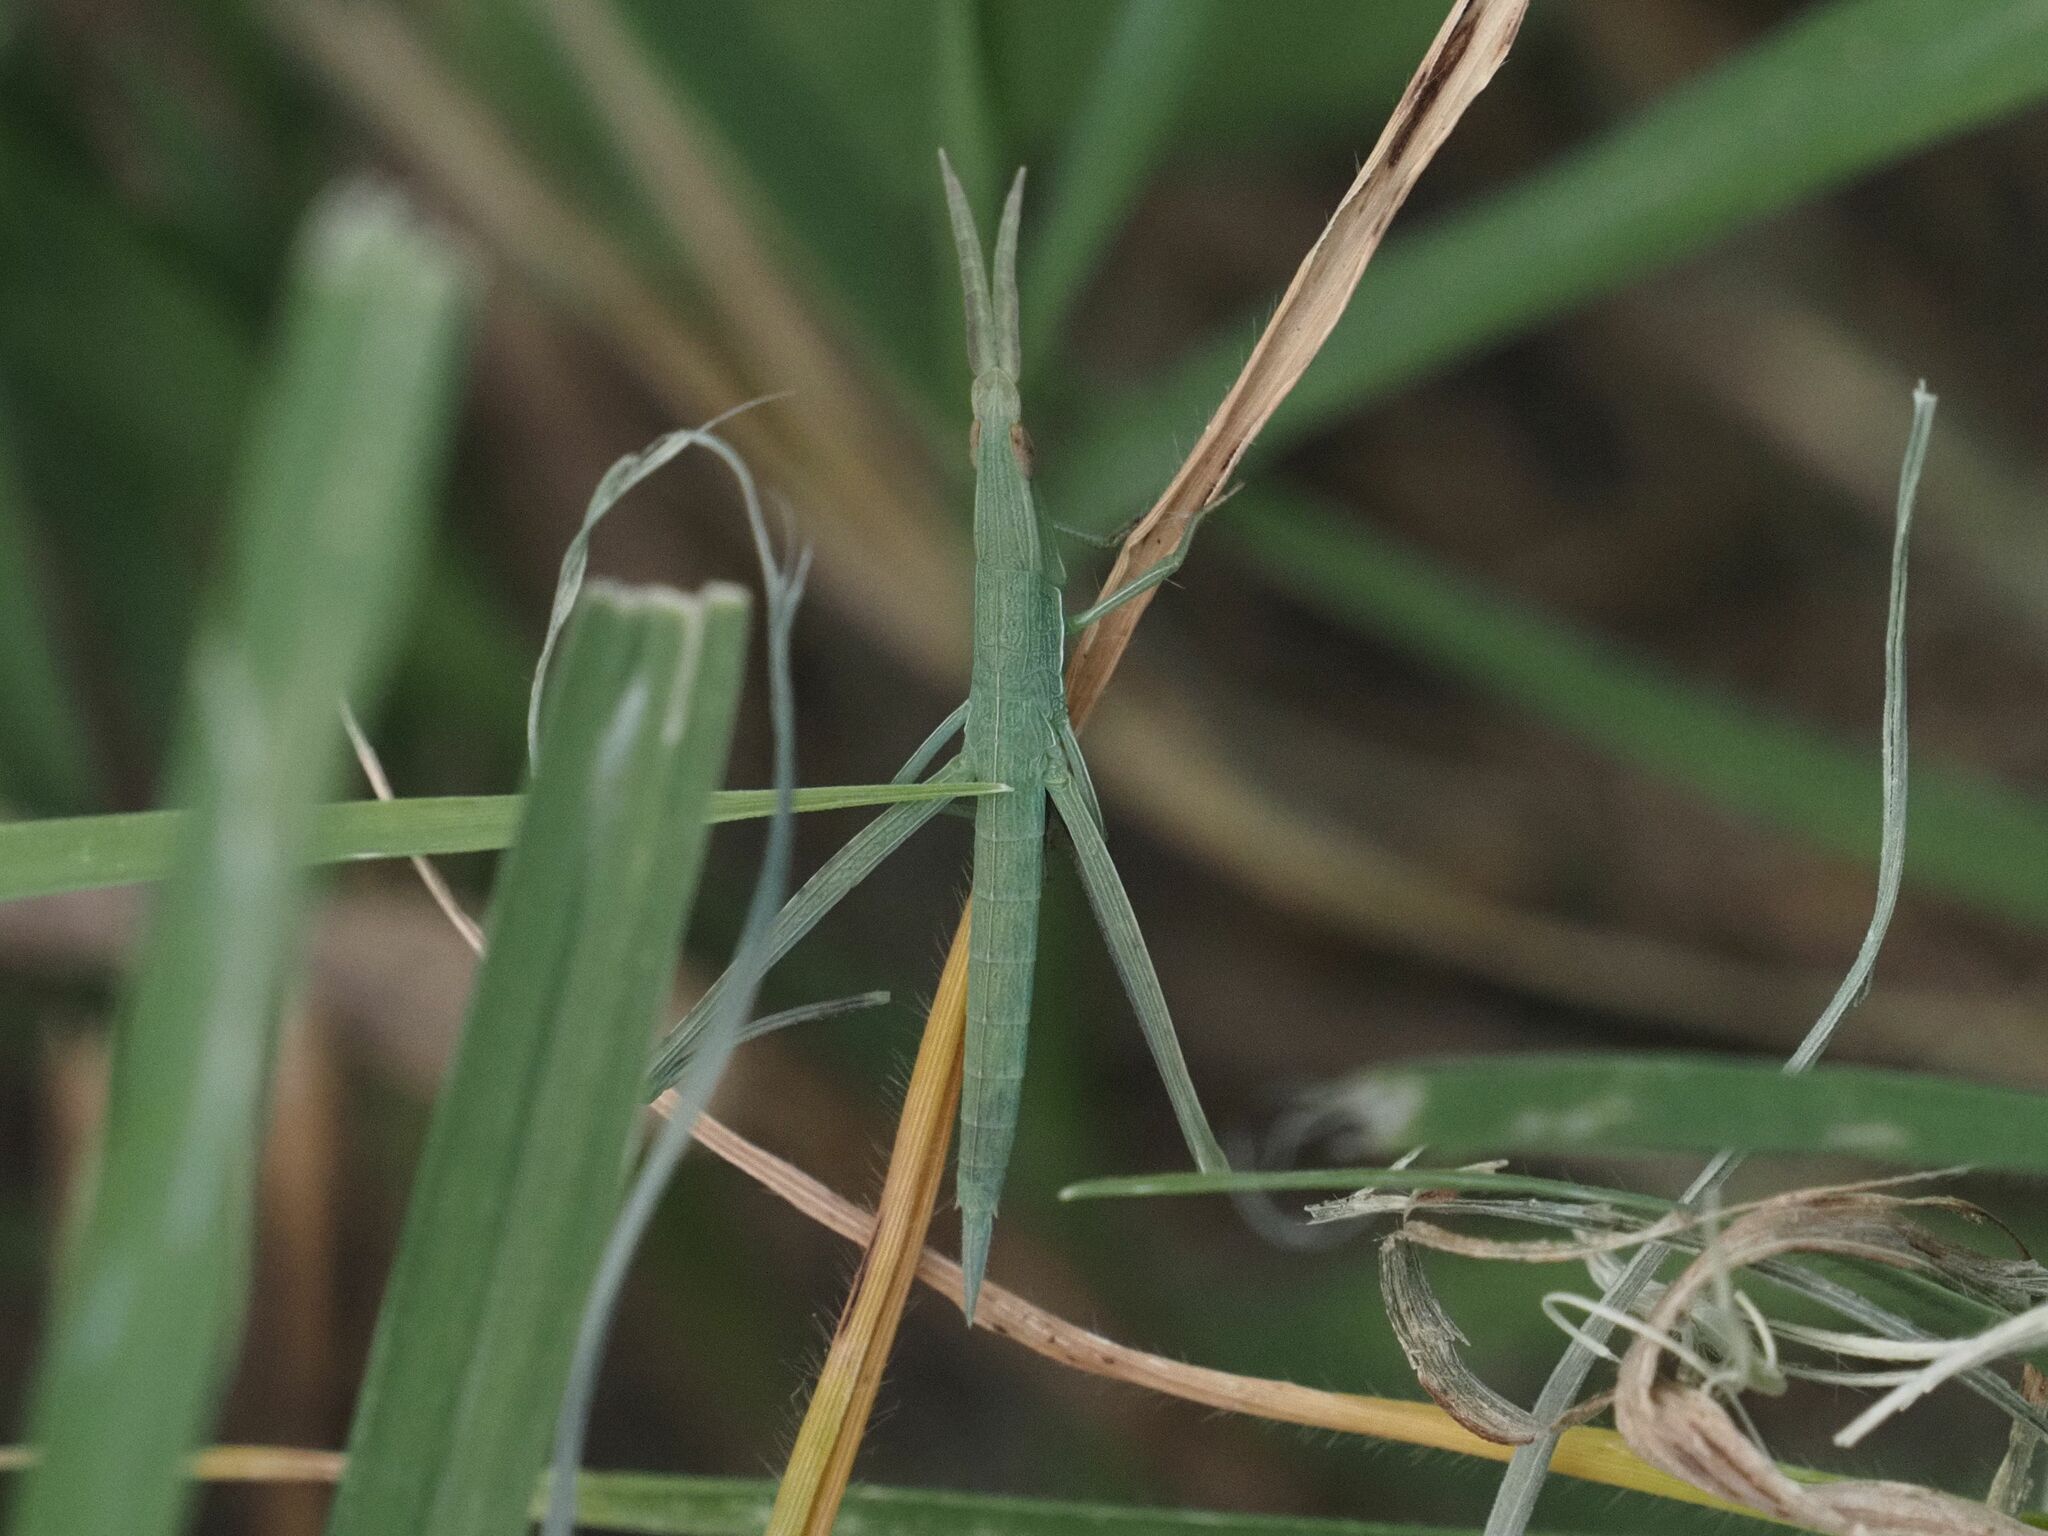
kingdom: Animalia
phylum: Arthropoda
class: Insecta
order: Orthoptera
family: Acrididae
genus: Acrida
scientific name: Acrida ungarica
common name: Common cone-headed grasshopper
